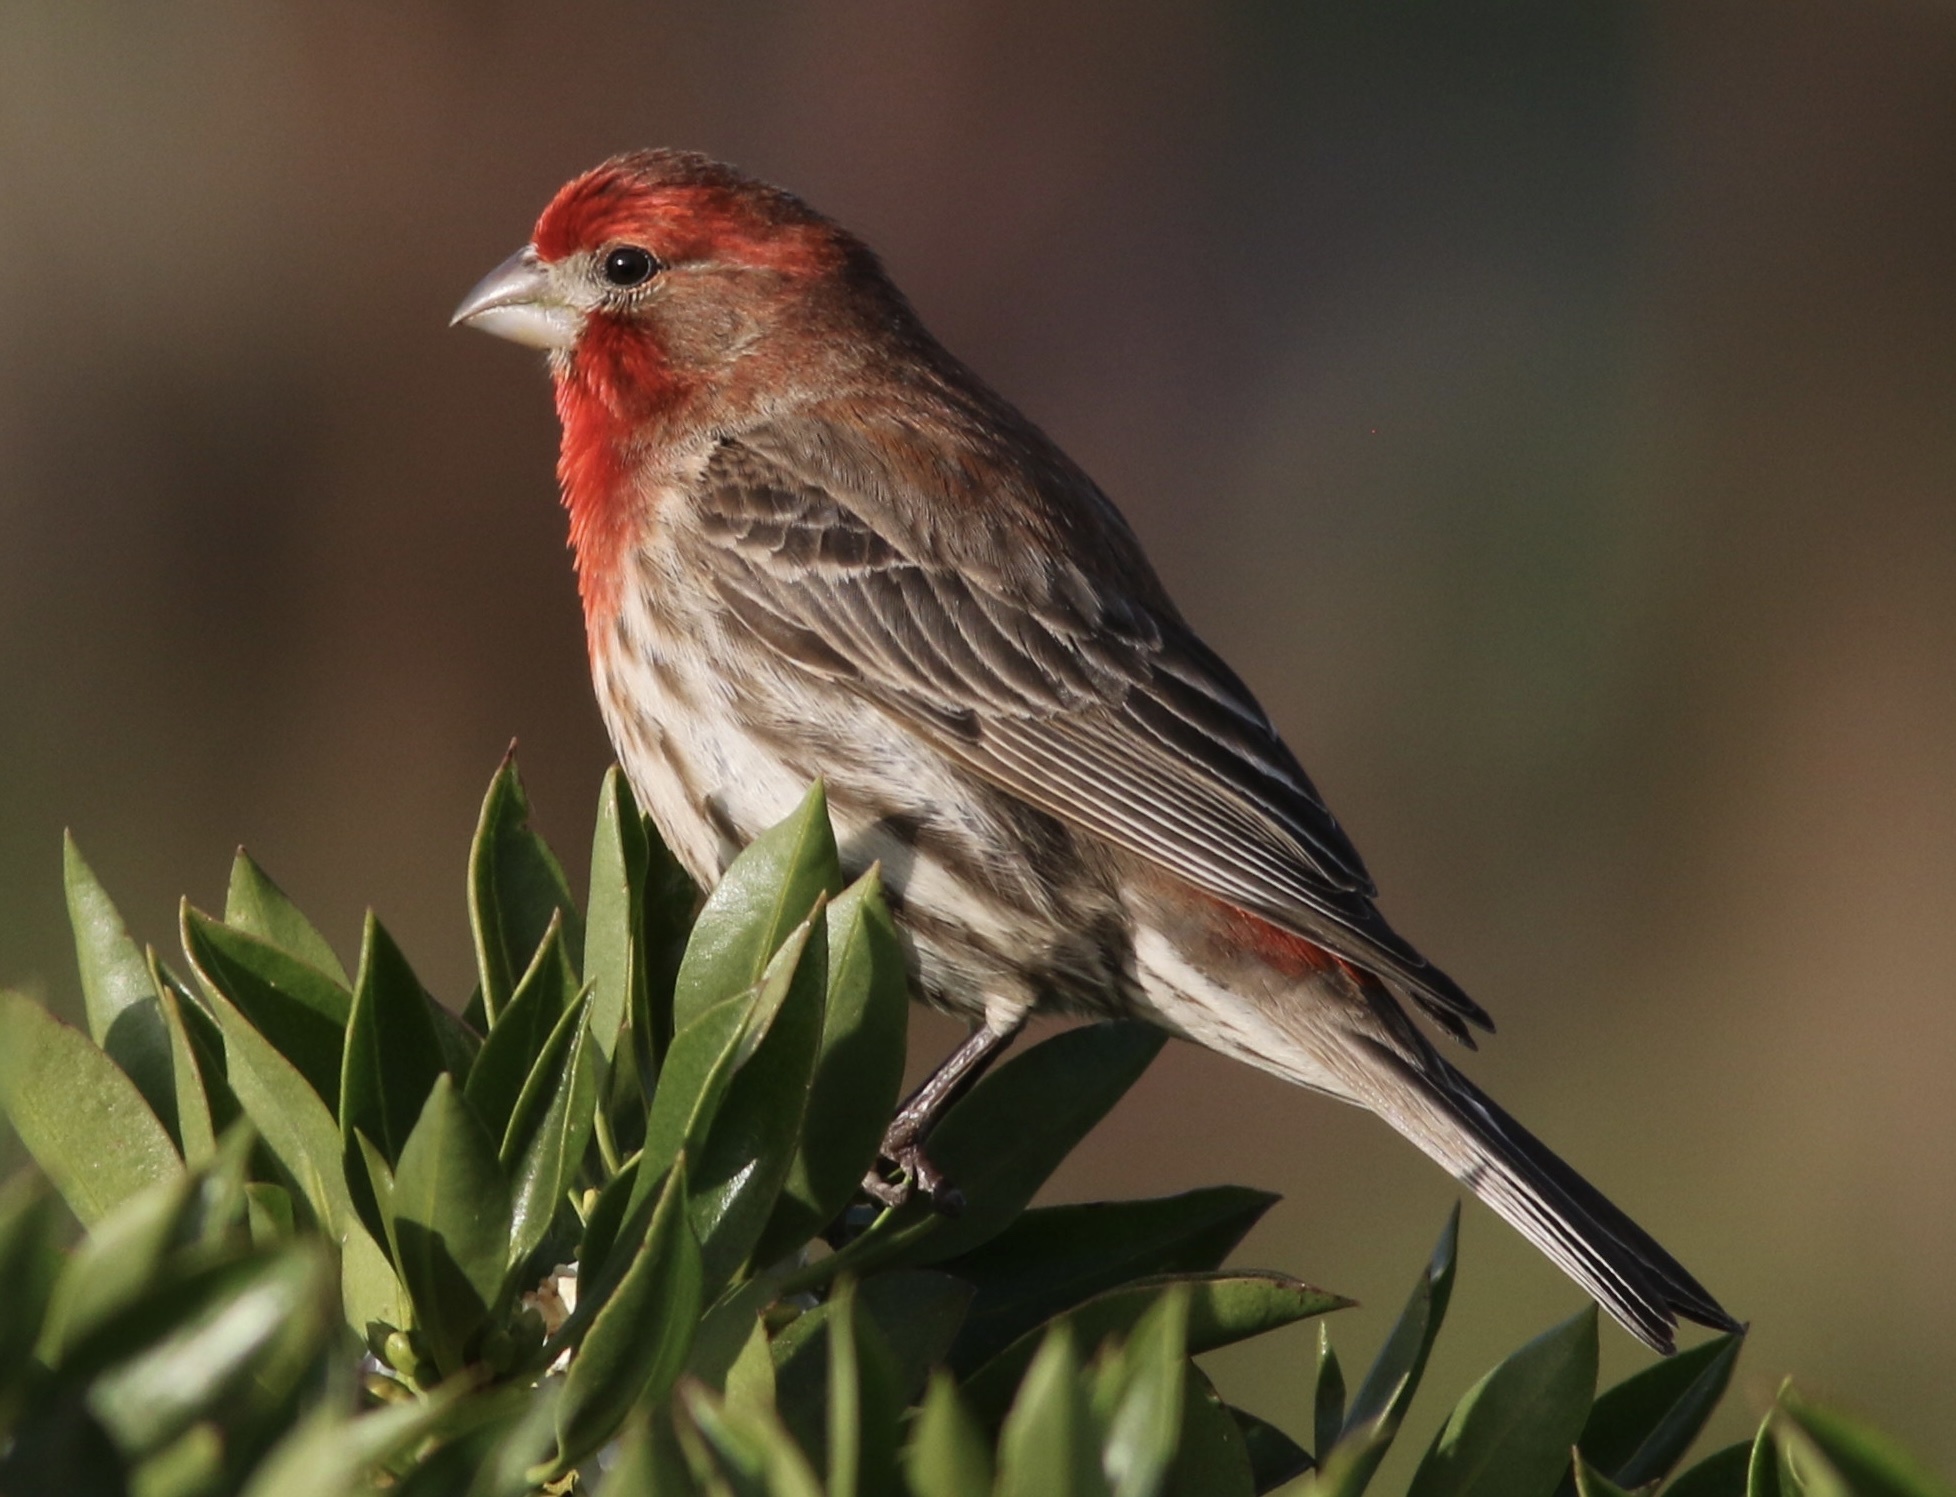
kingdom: Animalia
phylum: Chordata
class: Aves
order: Passeriformes
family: Fringillidae
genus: Haemorhous
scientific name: Haemorhous mexicanus
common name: House finch
